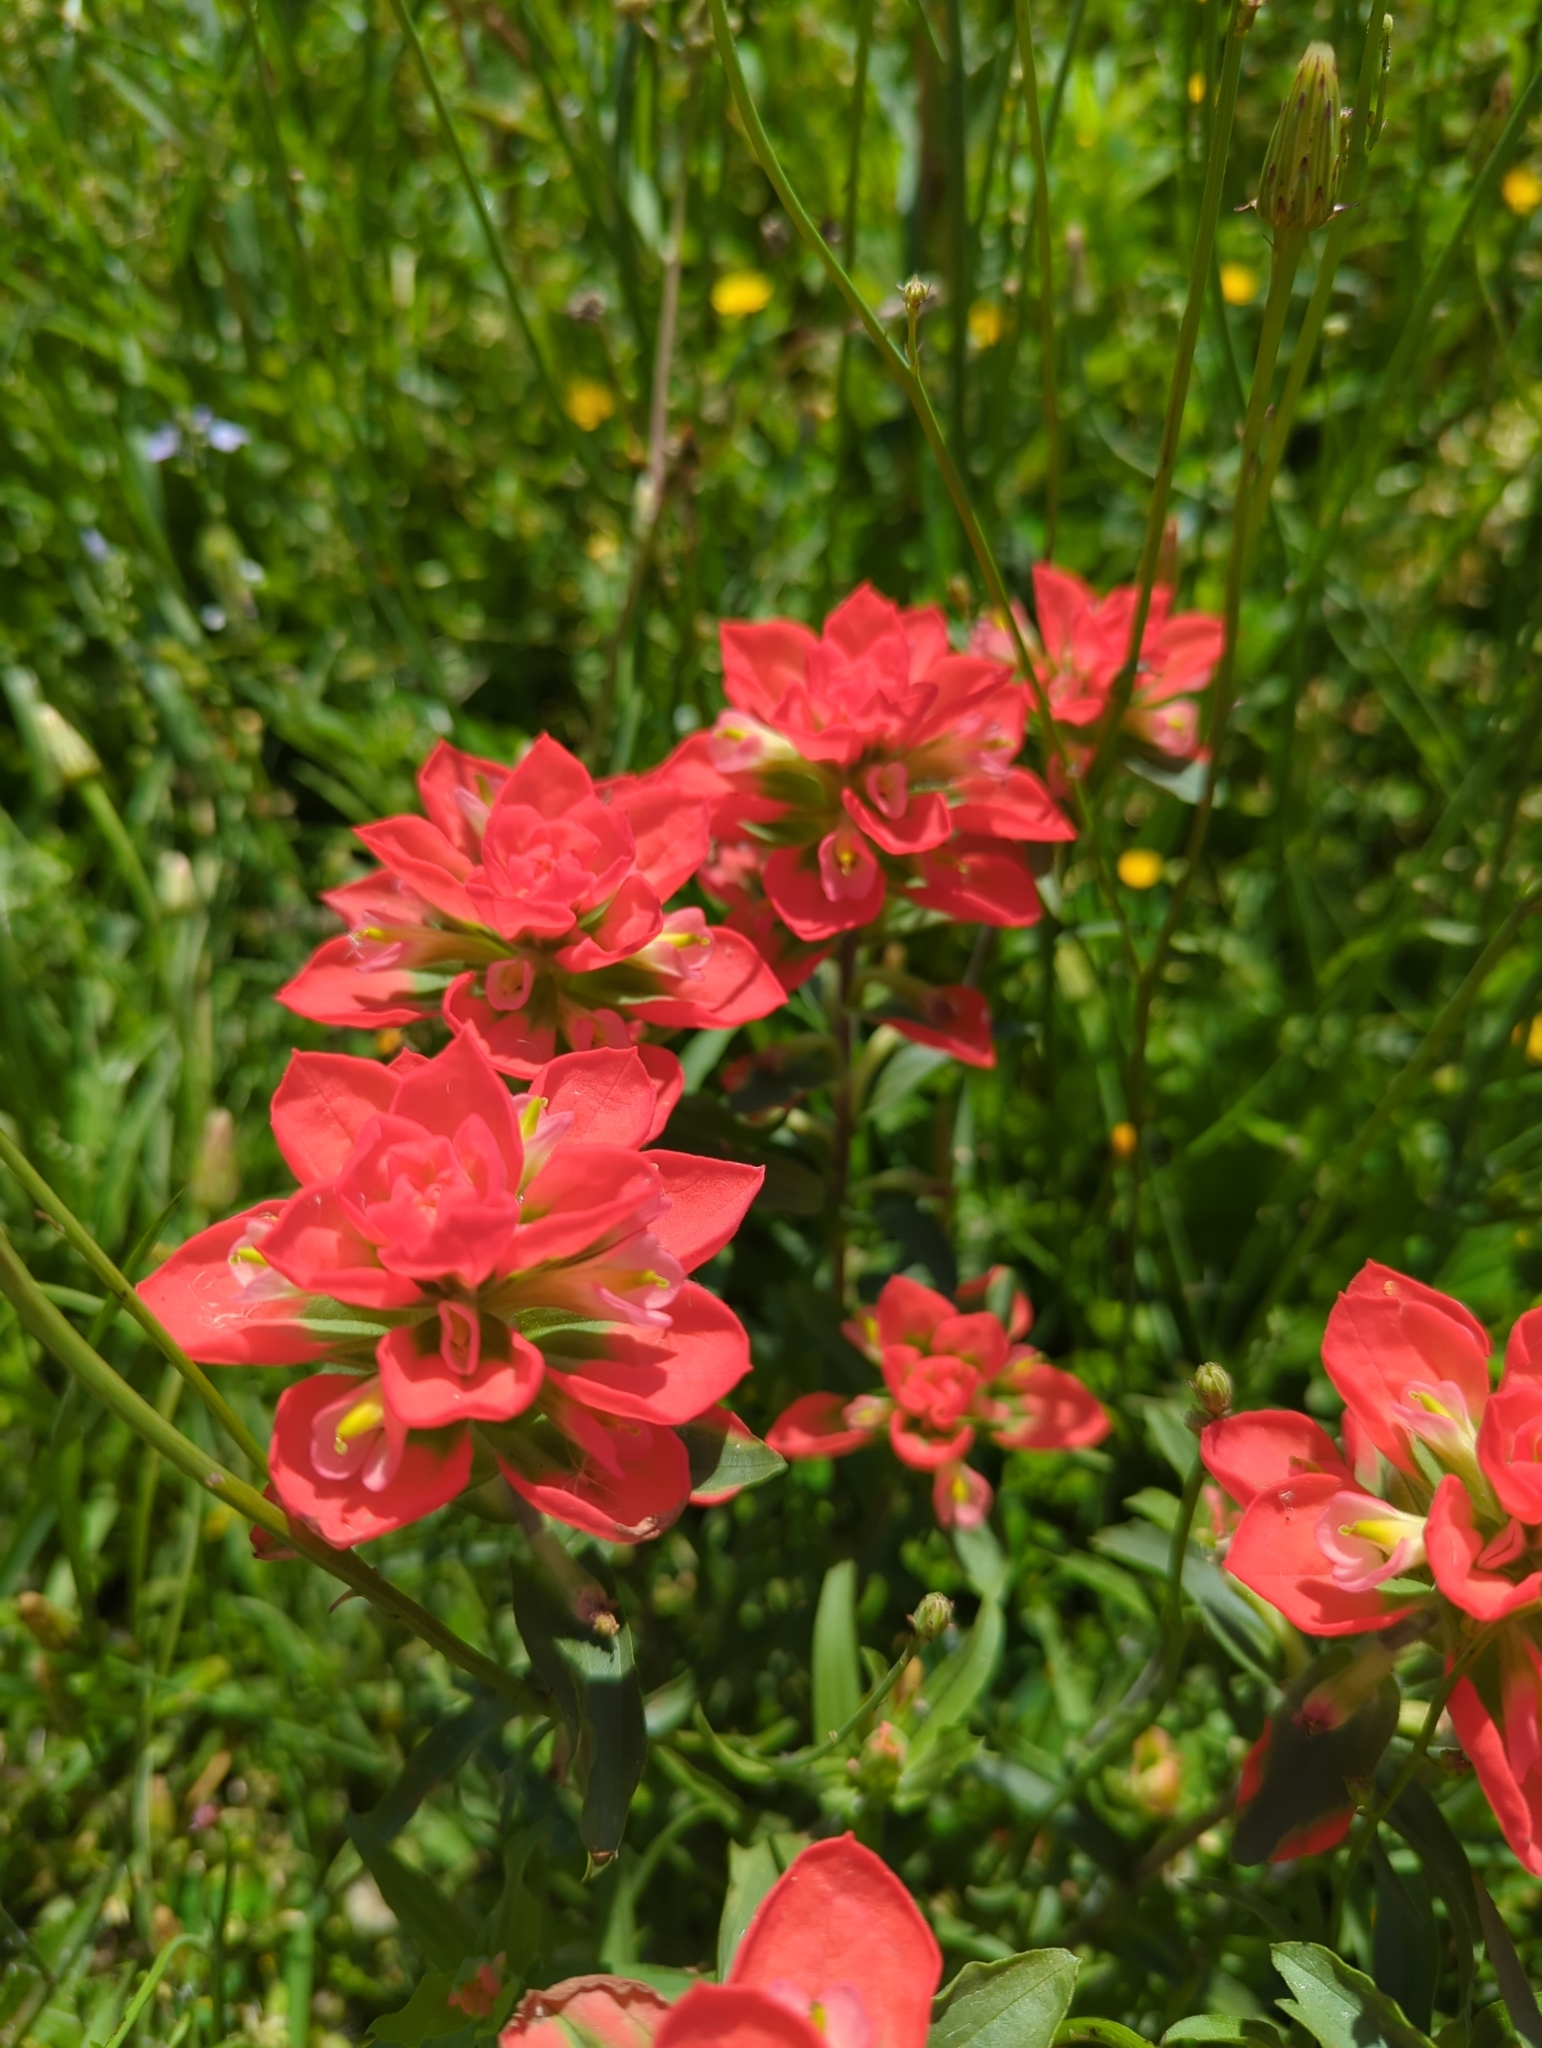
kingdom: Plantae
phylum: Tracheophyta
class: Magnoliopsida
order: Lamiales
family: Orobanchaceae
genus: Castilleja
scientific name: Castilleja indivisa
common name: Texas paintbrush
